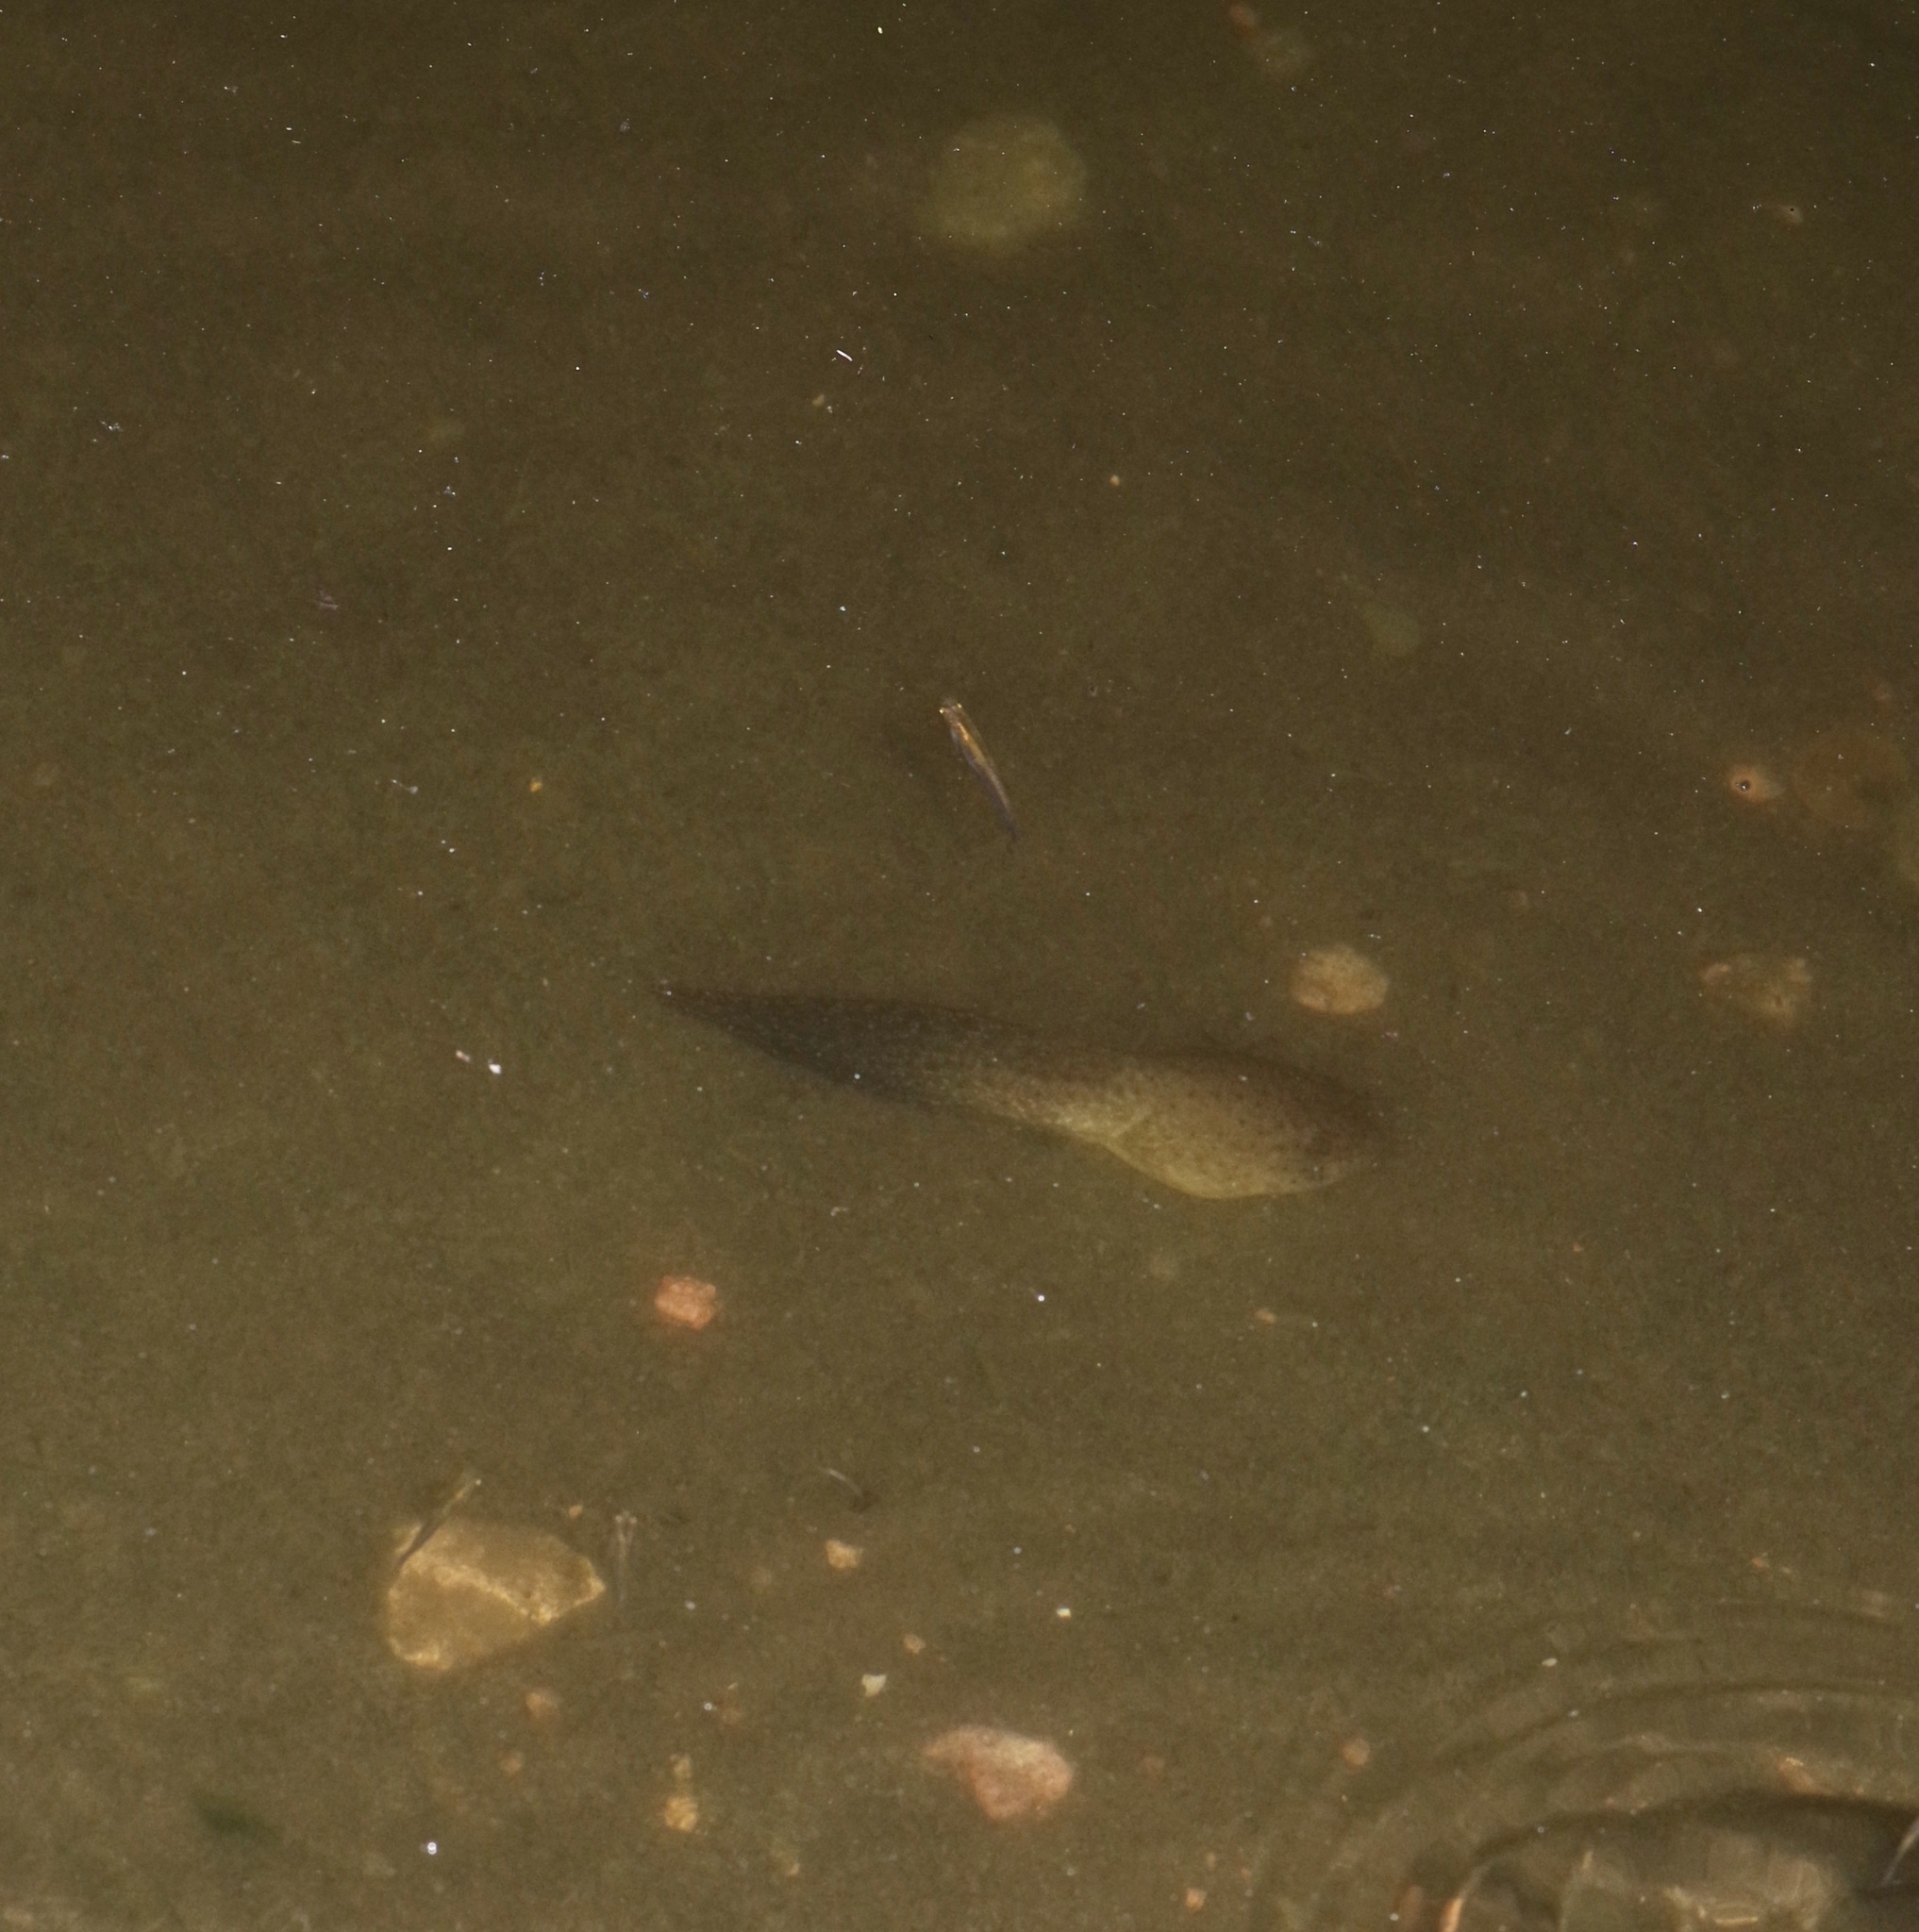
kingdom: Animalia
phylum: Chordata
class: Amphibia
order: Anura
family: Ranidae
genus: Lithobates
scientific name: Lithobates catesbeianus
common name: American bullfrog
